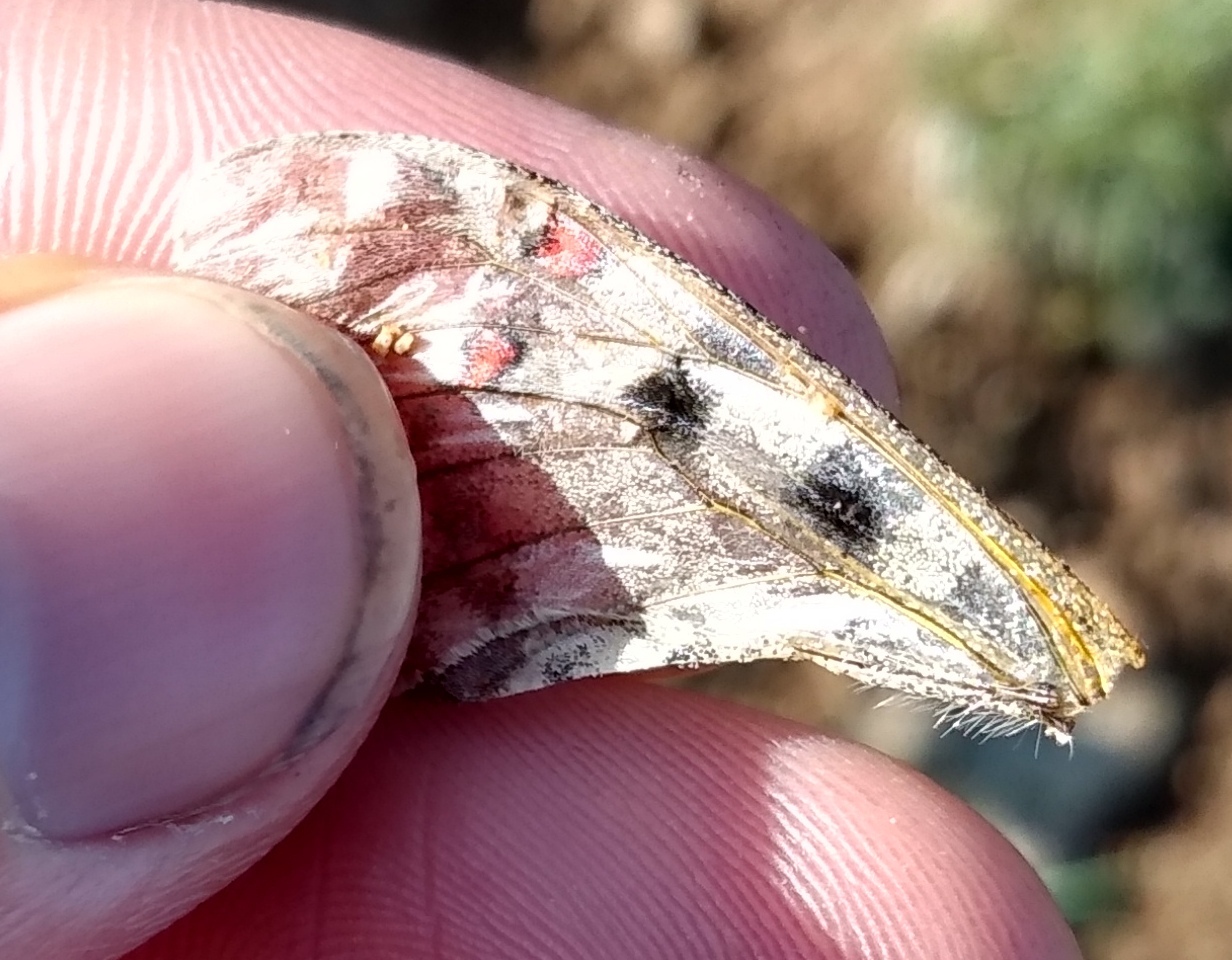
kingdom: Animalia
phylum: Arthropoda
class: Insecta
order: Lepidoptera
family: Papilionidae
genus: Parnassius
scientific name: Parnassius smintheus
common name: Mountain parnassian
